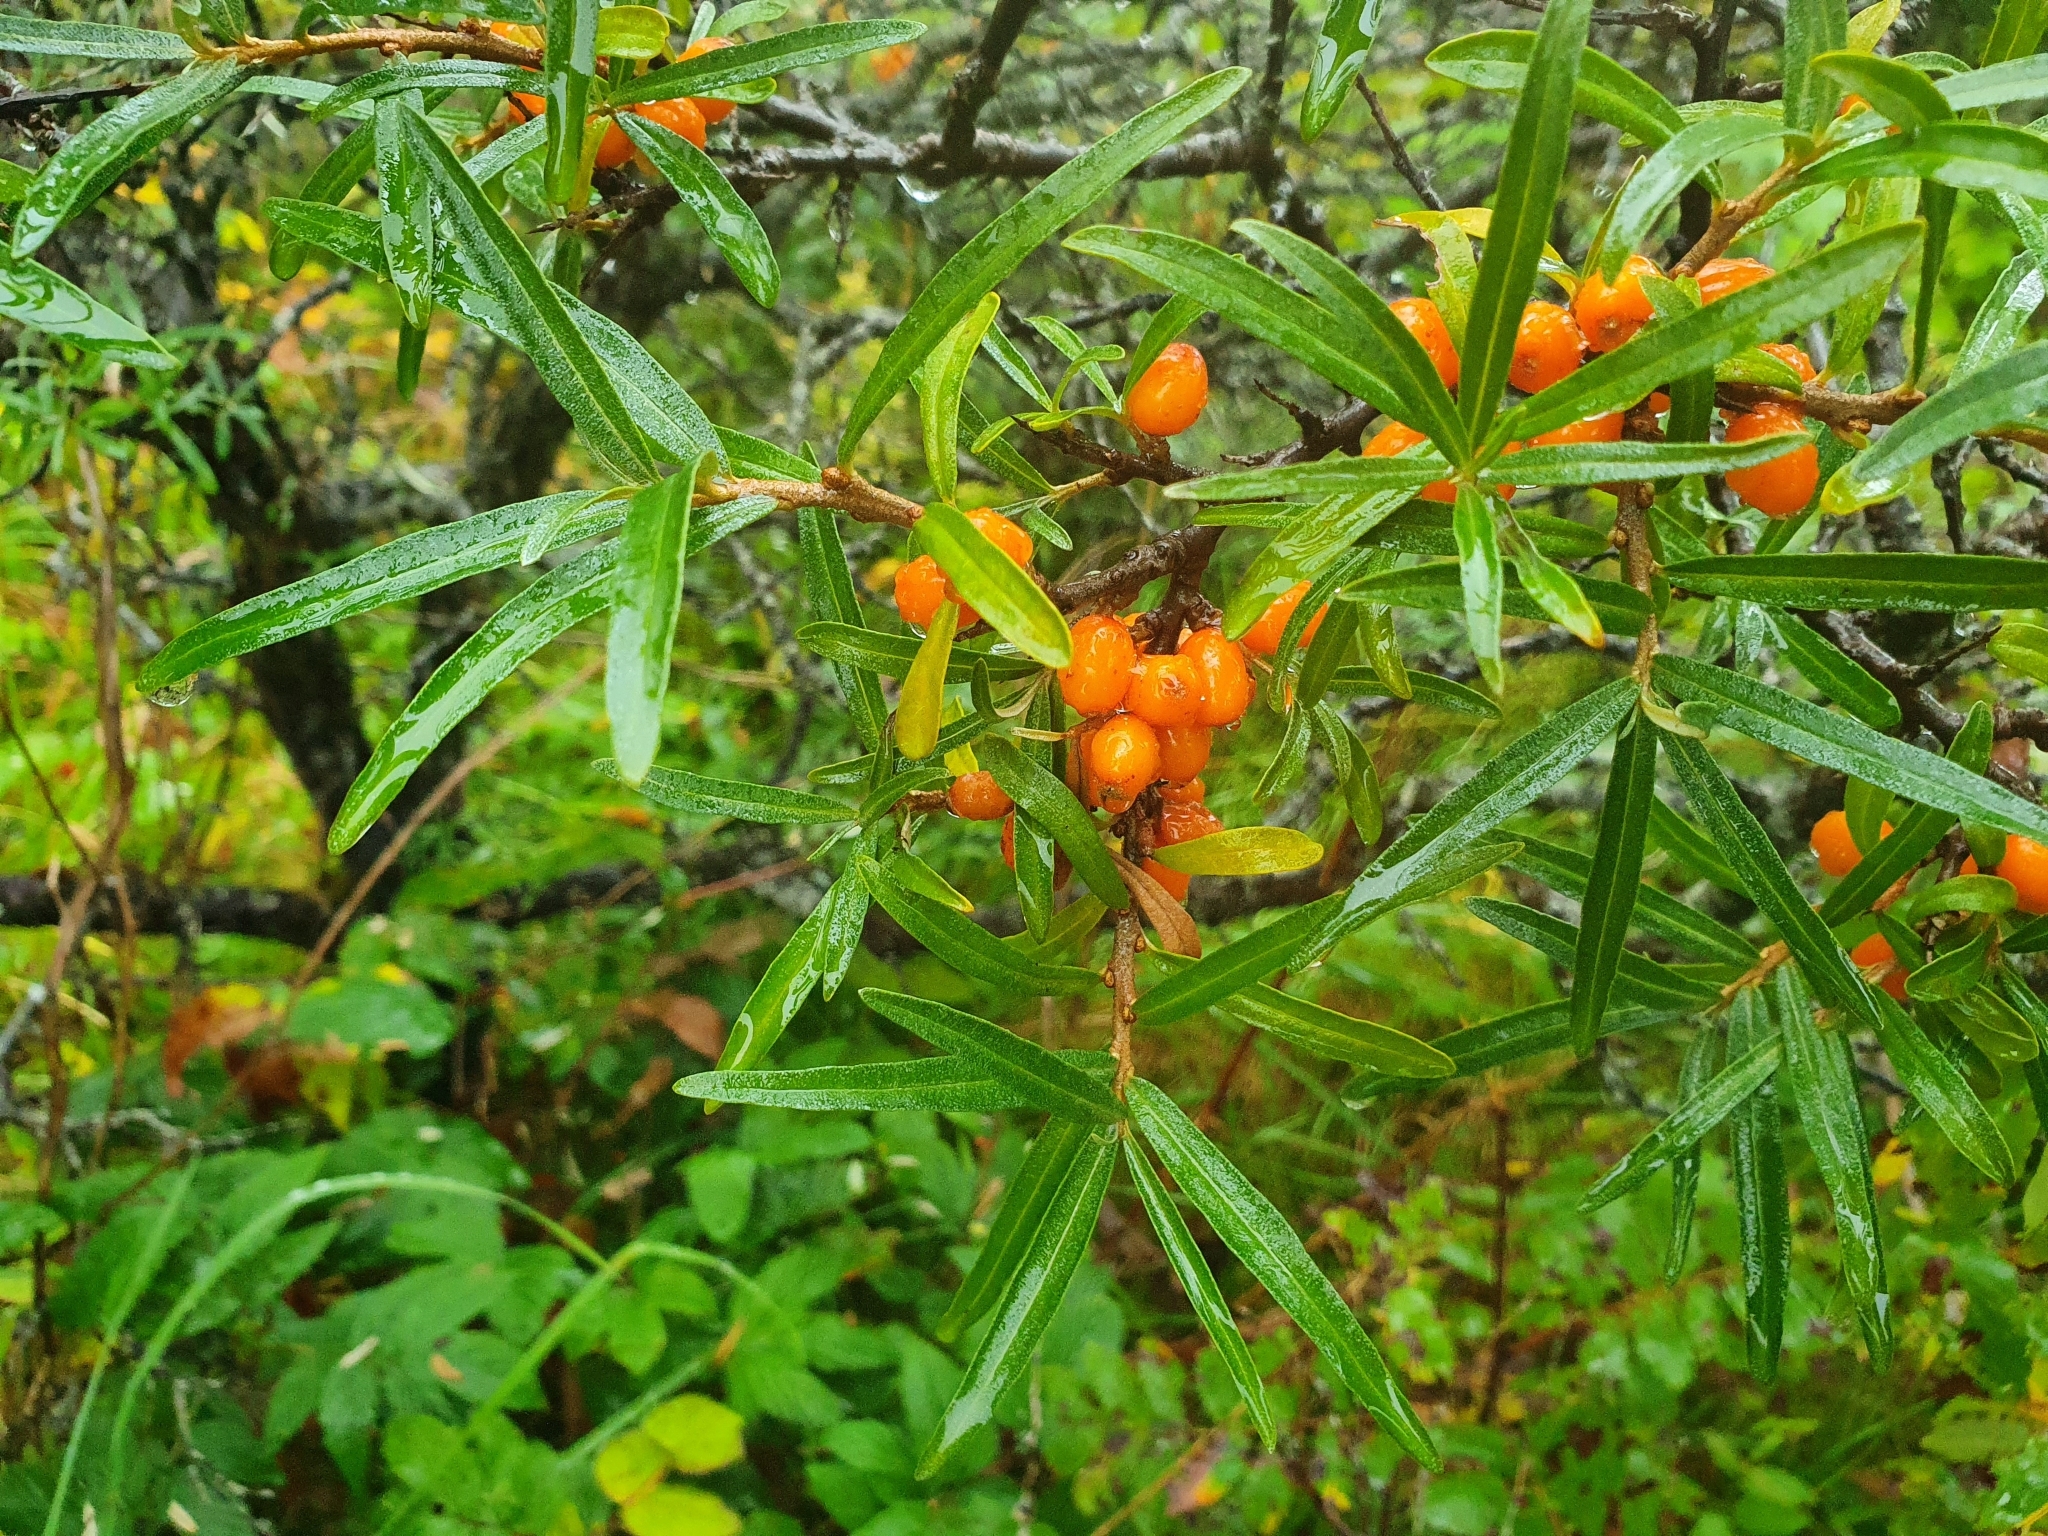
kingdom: Plantae
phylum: Tracheophyta
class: Magnoliopsida
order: Rosales
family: Elaeagnaceae
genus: Hippophae
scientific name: Hippophae rhamnoides
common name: Sea-buckthorn
